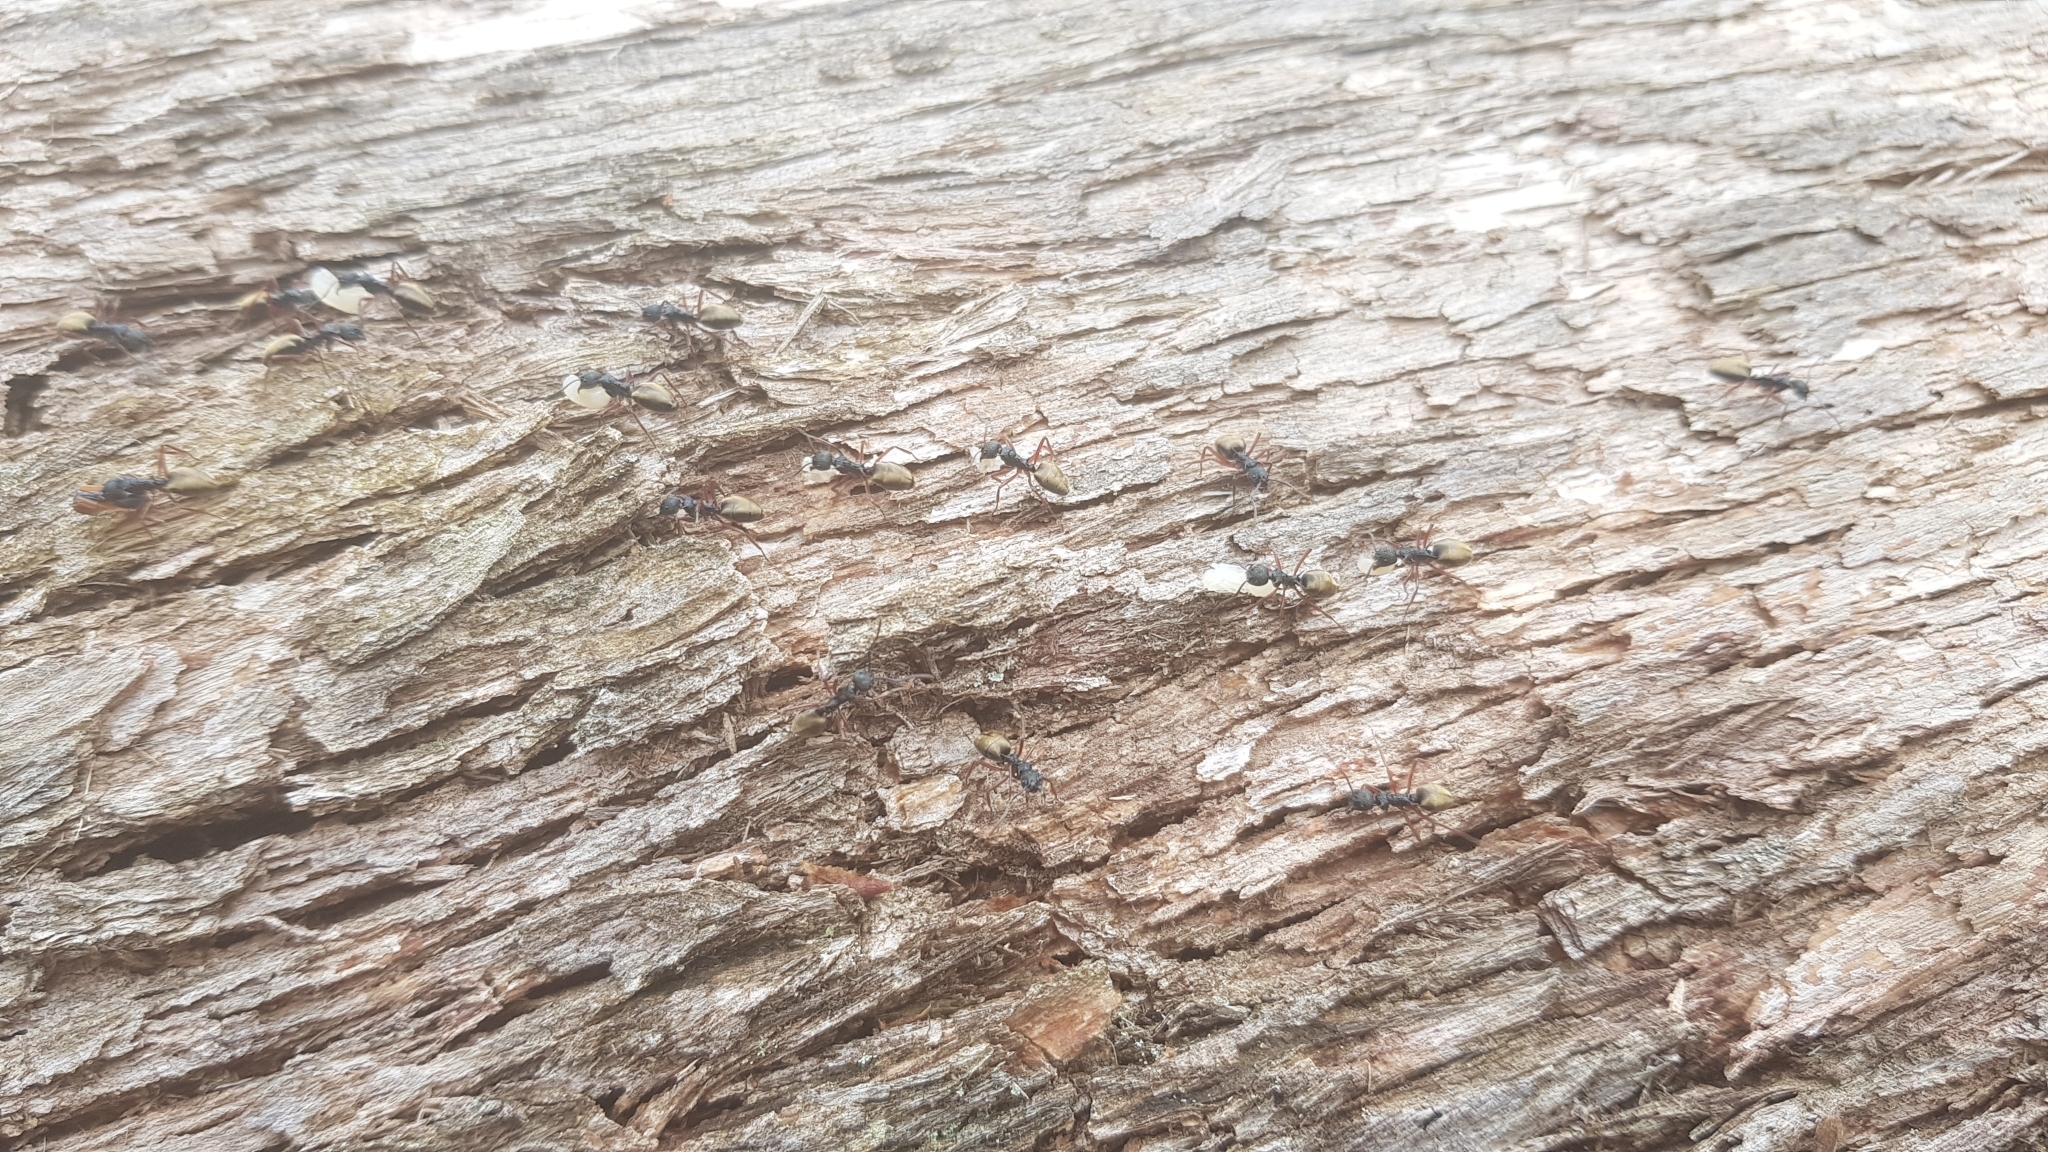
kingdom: Animalia
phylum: Arthropoda
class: Insecta
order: Hymenoptera
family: Formicidae
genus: Dolichoderus
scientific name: Dolichoderus doriae
